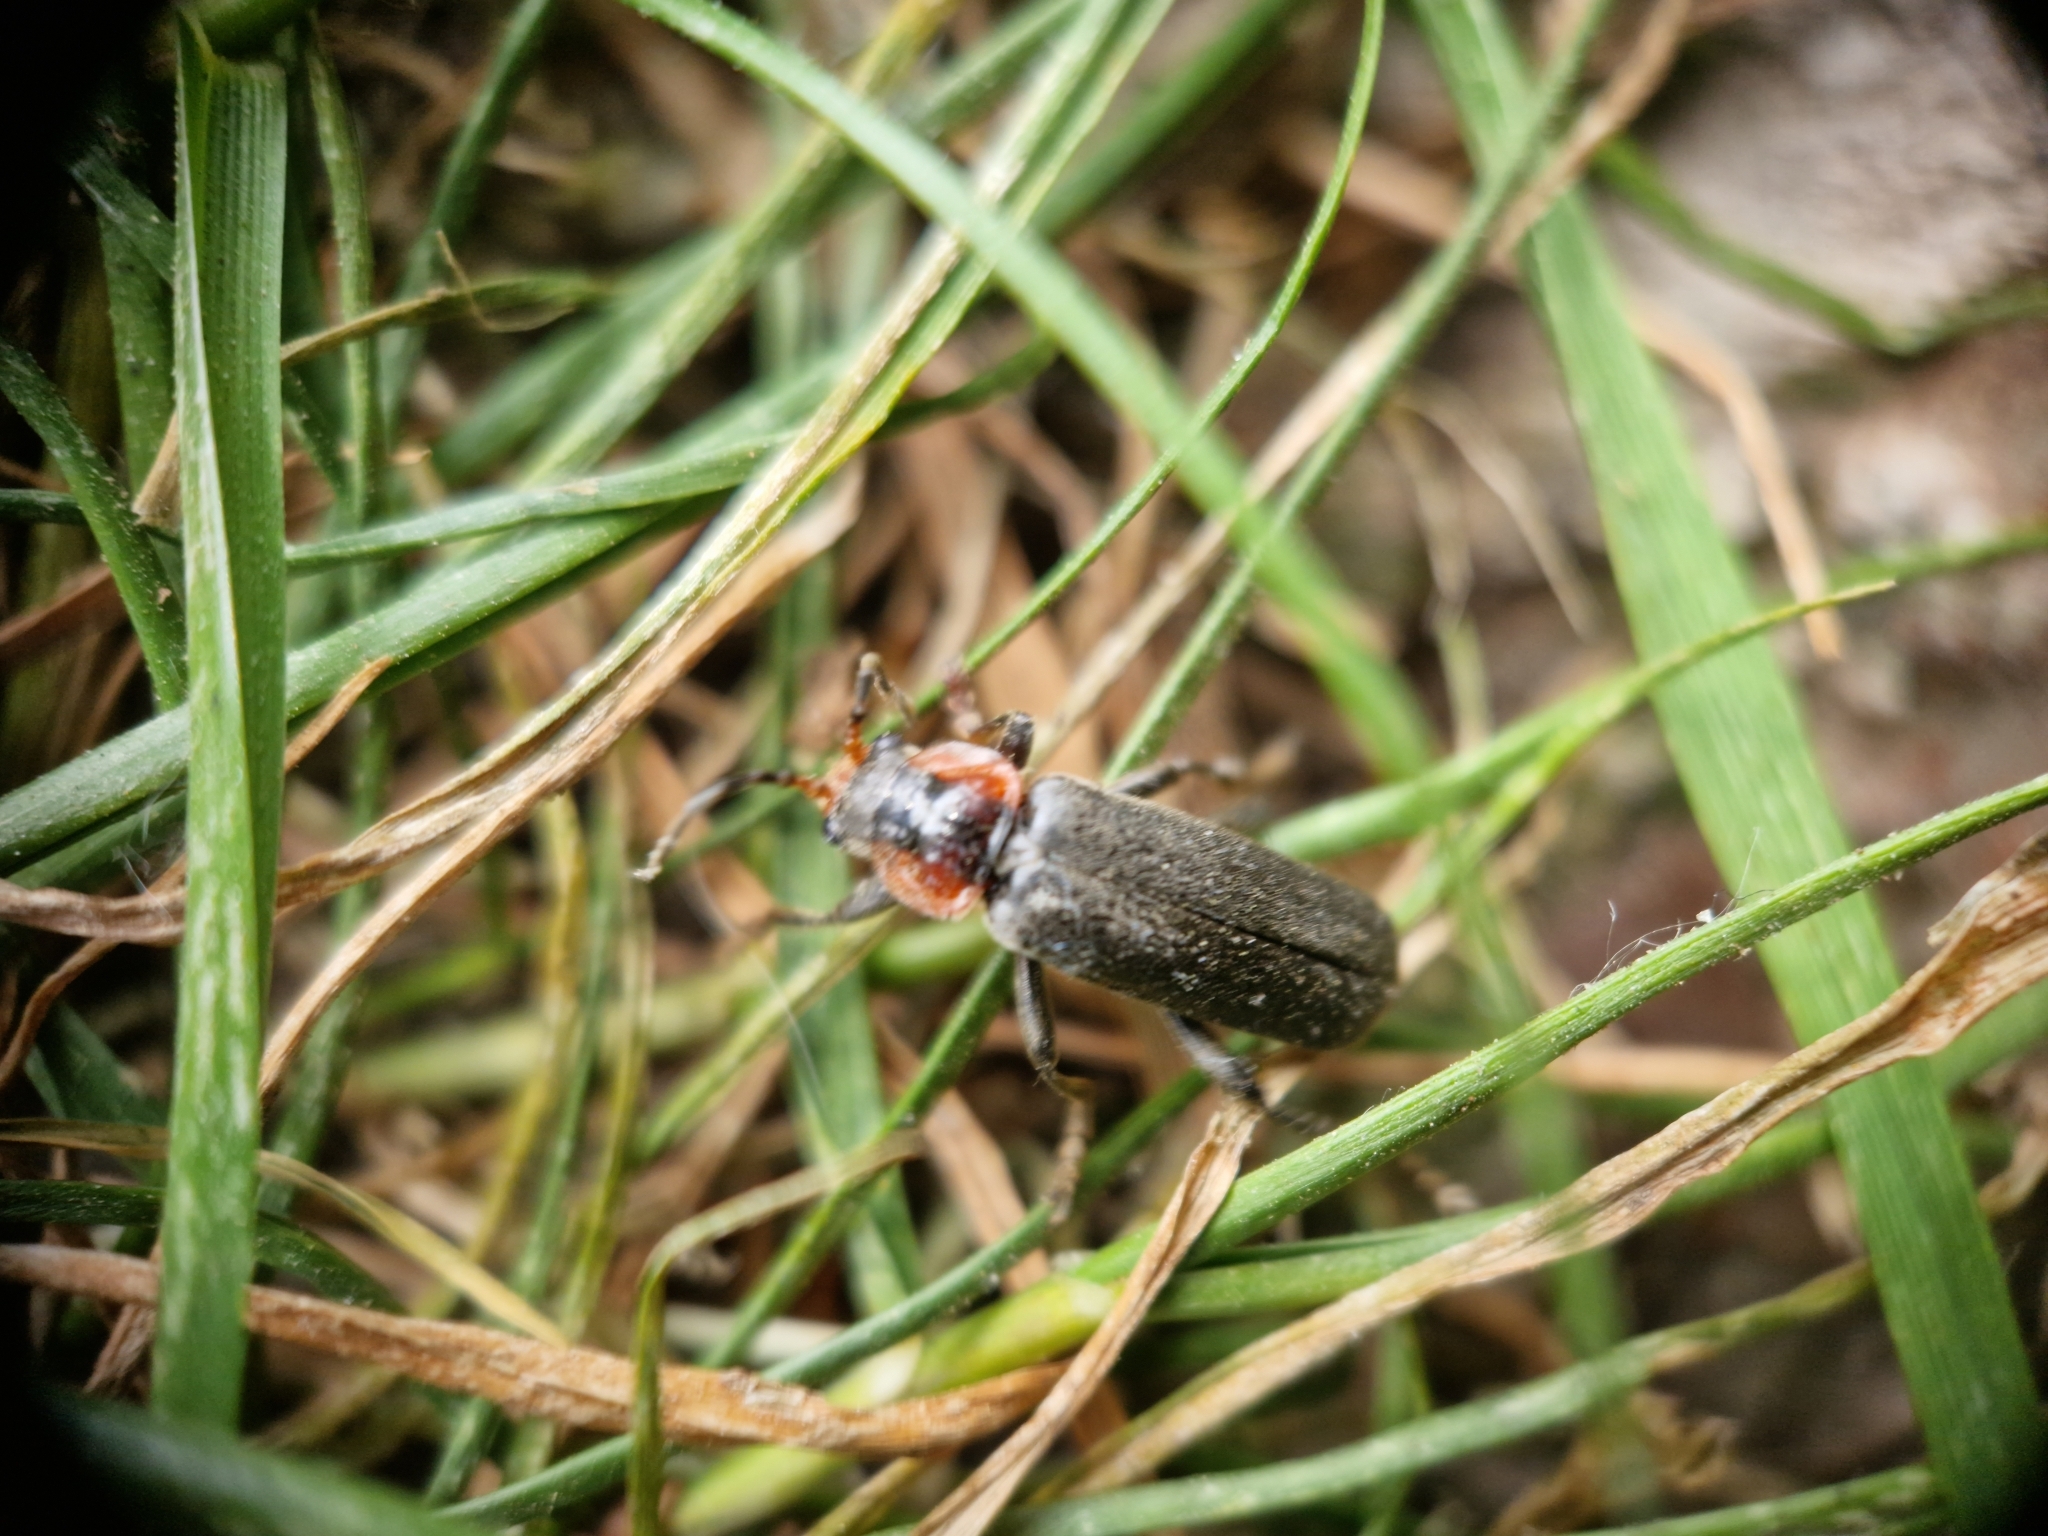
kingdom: Animalia
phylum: Arthropoda
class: Insecta
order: Coleoptera
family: Cantharidae
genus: Cantharis
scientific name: Cantharis fusca
